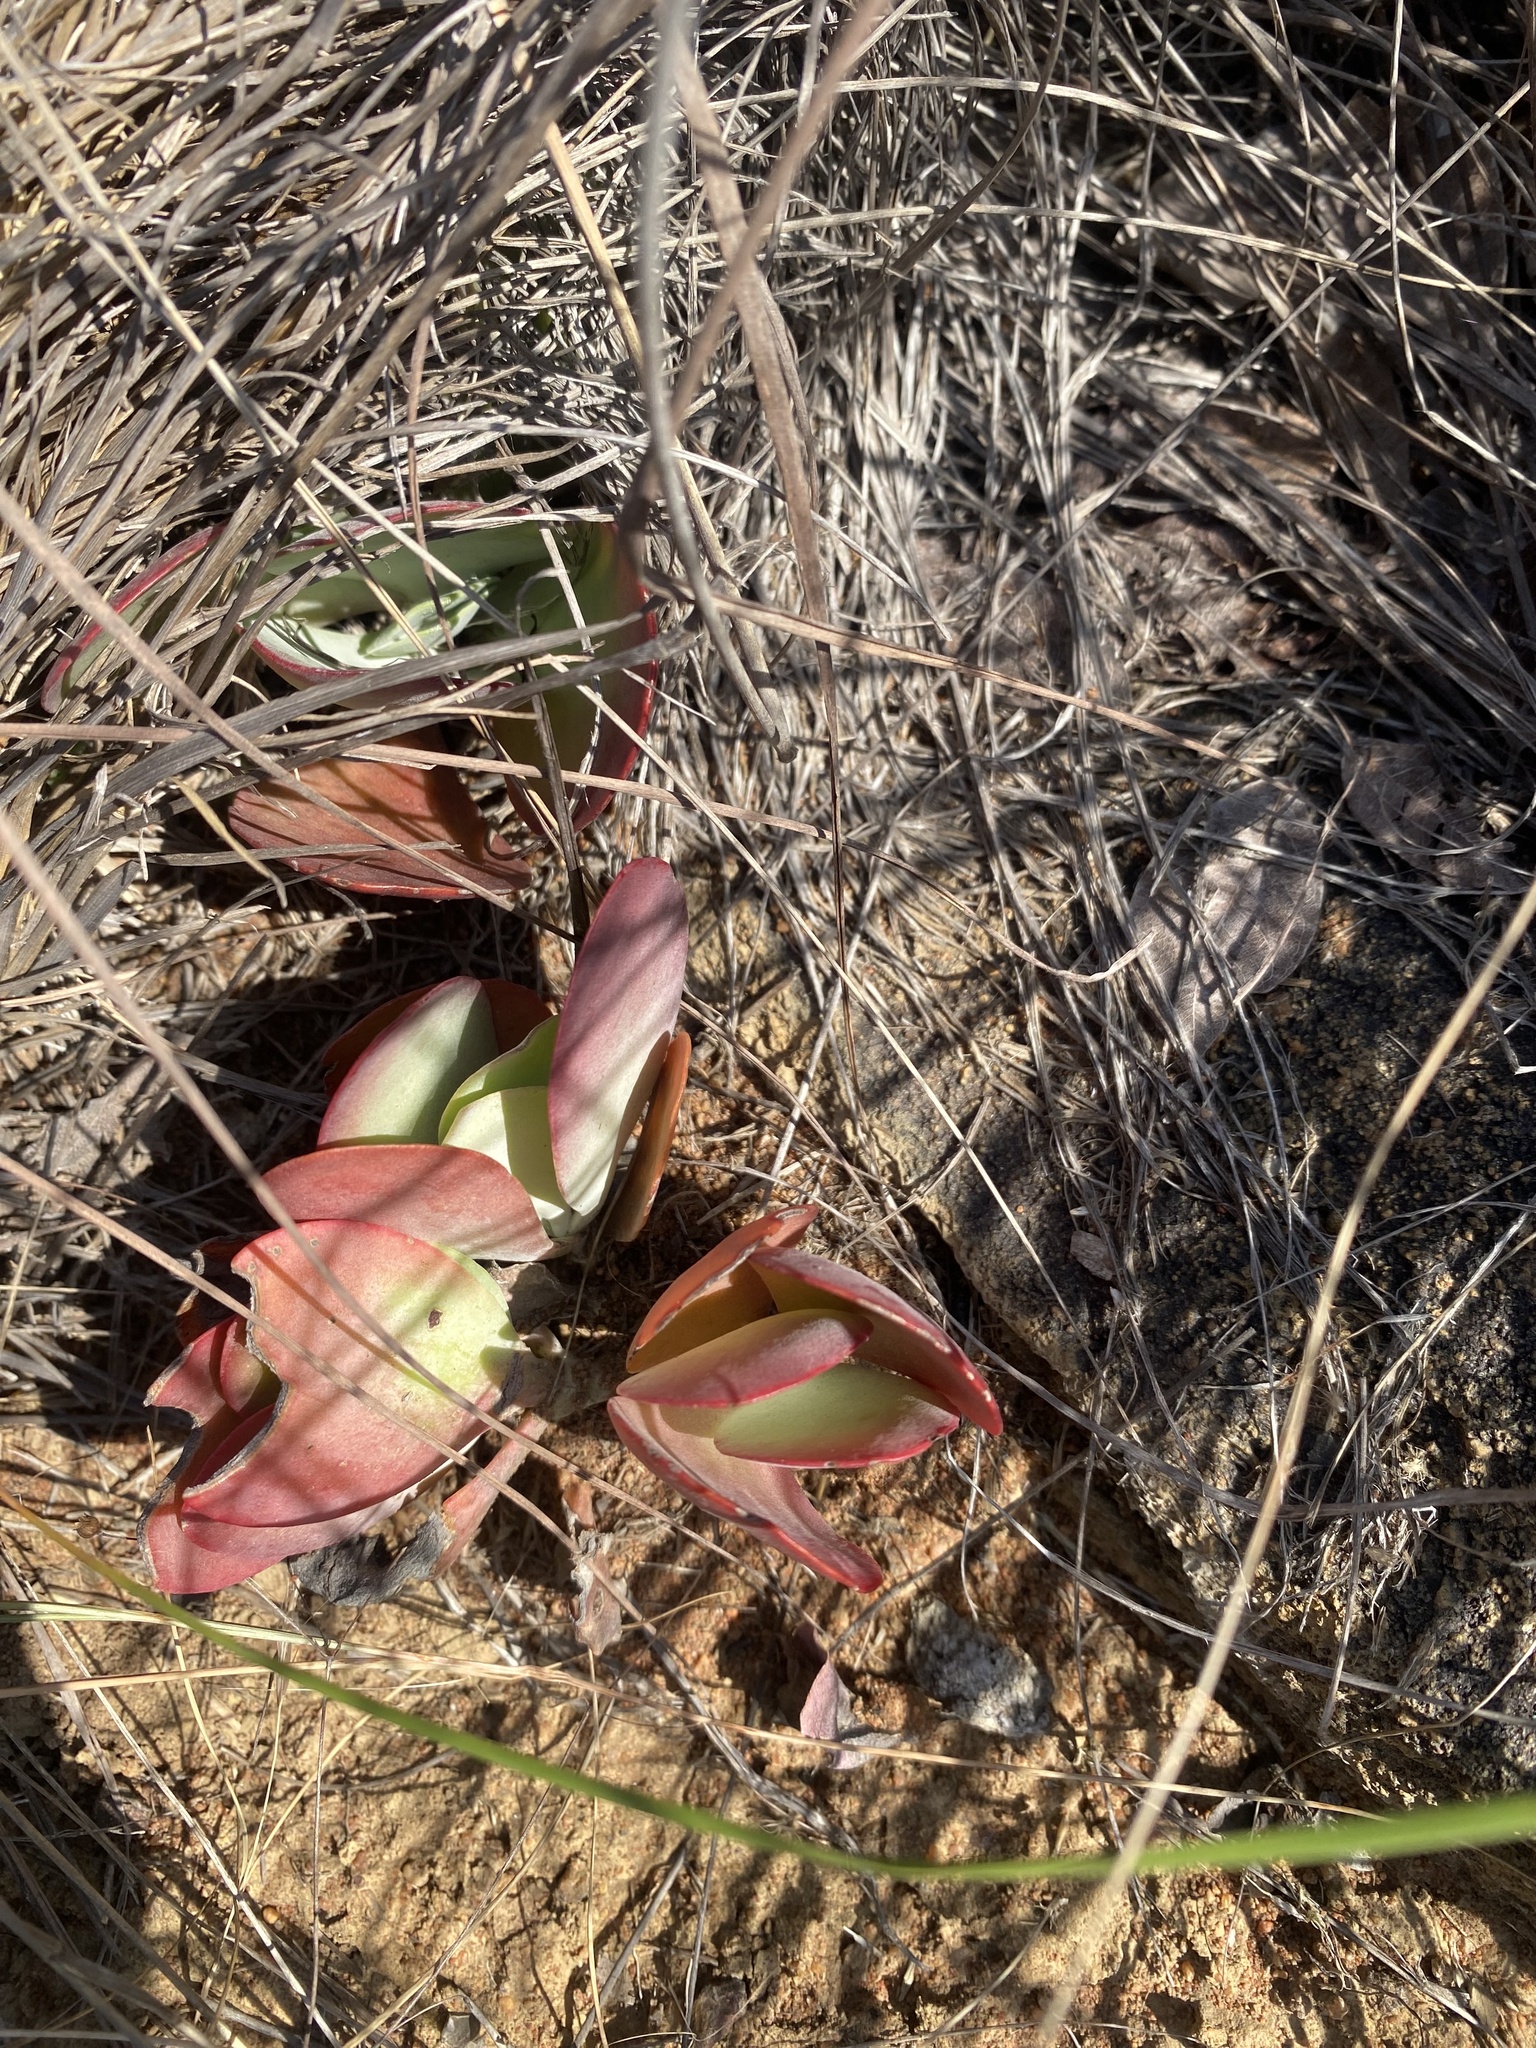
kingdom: Plantae
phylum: Tracheophyta
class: Magnoliopsida
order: Saxifragales
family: Crassulaceae
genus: Kalanchoe
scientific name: Kalanchoe thyrsiflora
